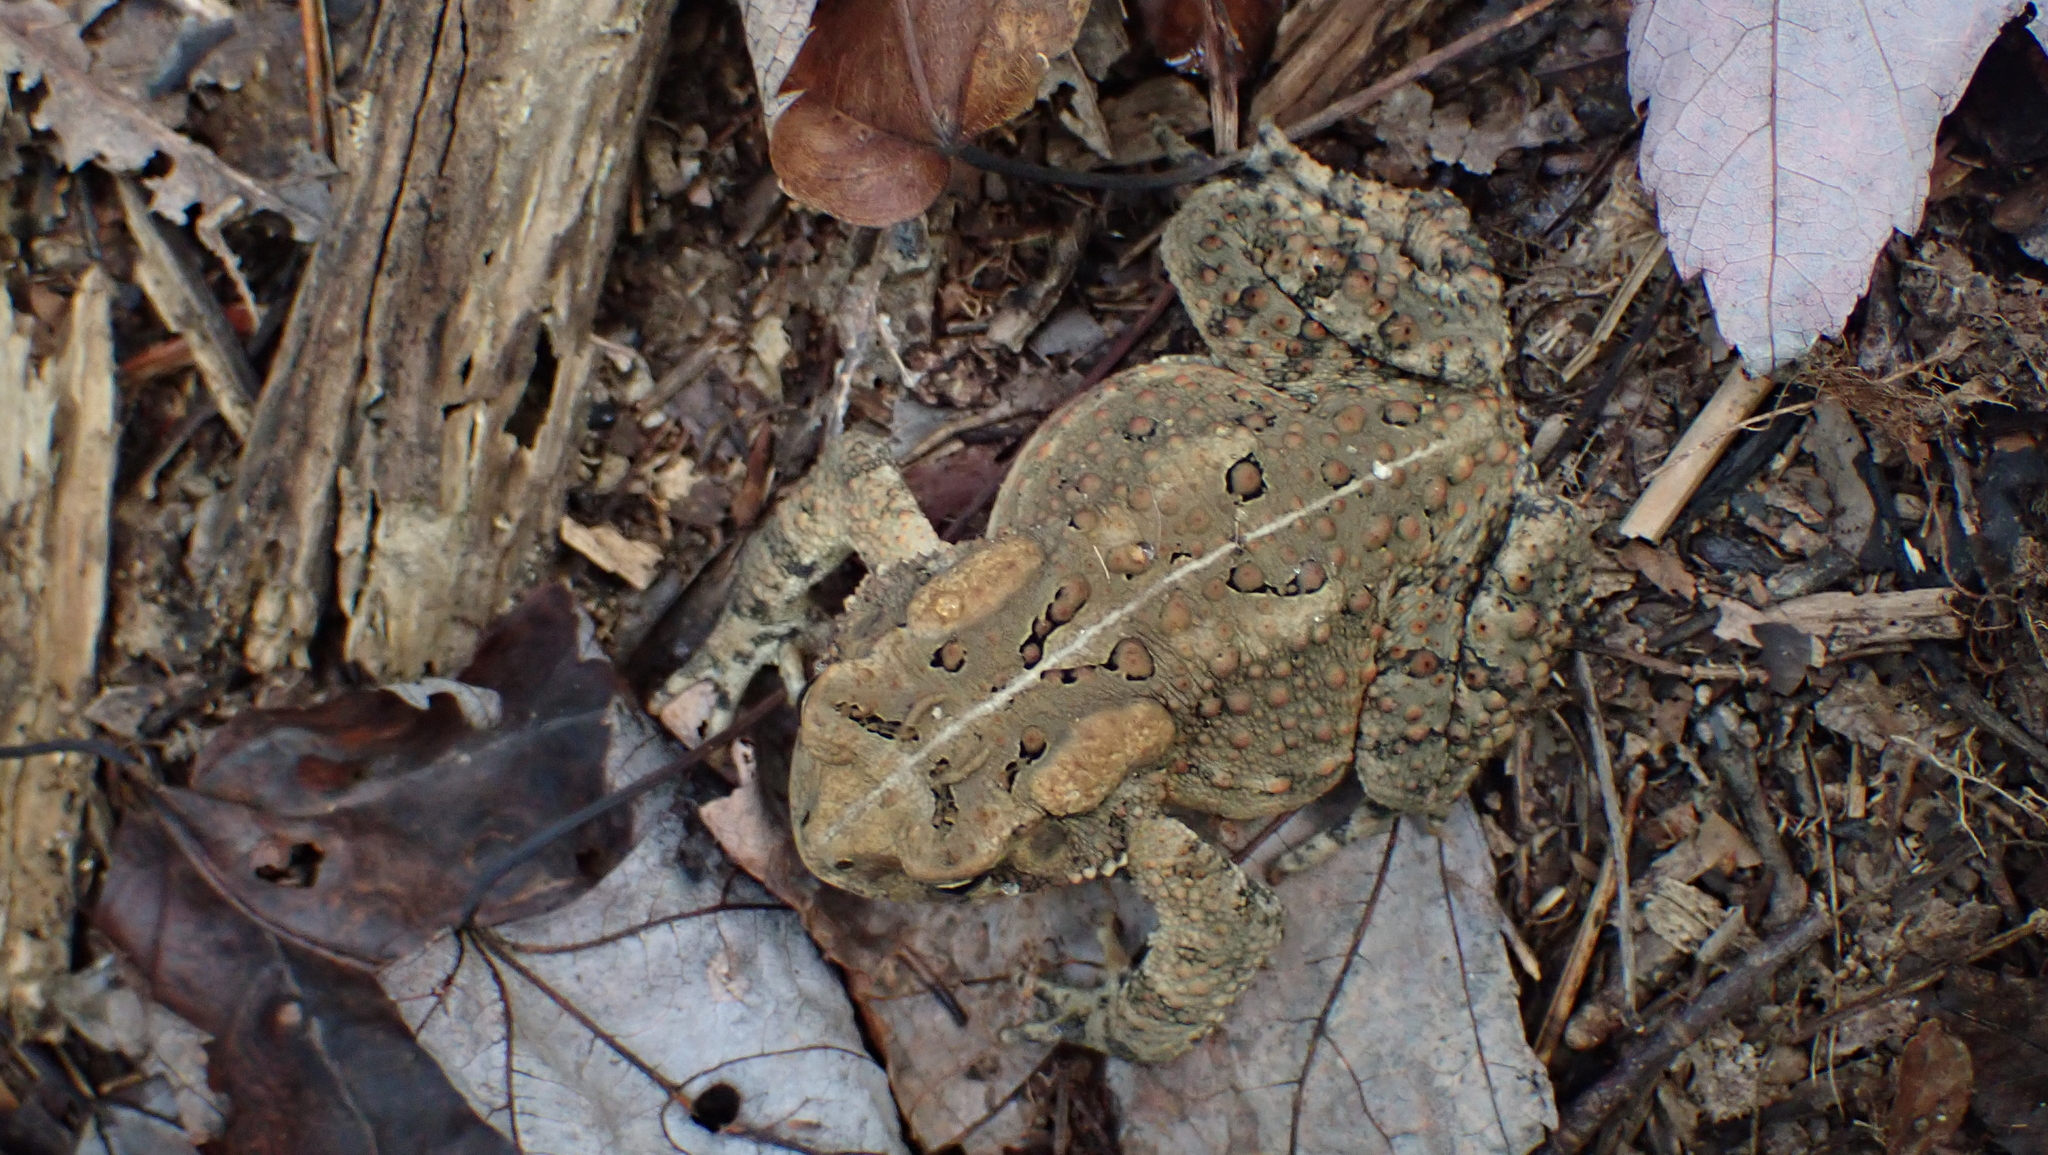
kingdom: Animalia
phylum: Chordata
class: Amphibia
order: Anura
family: Bufonidae
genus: Anaxyrus
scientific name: Anaxyrus americanus
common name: American toad
